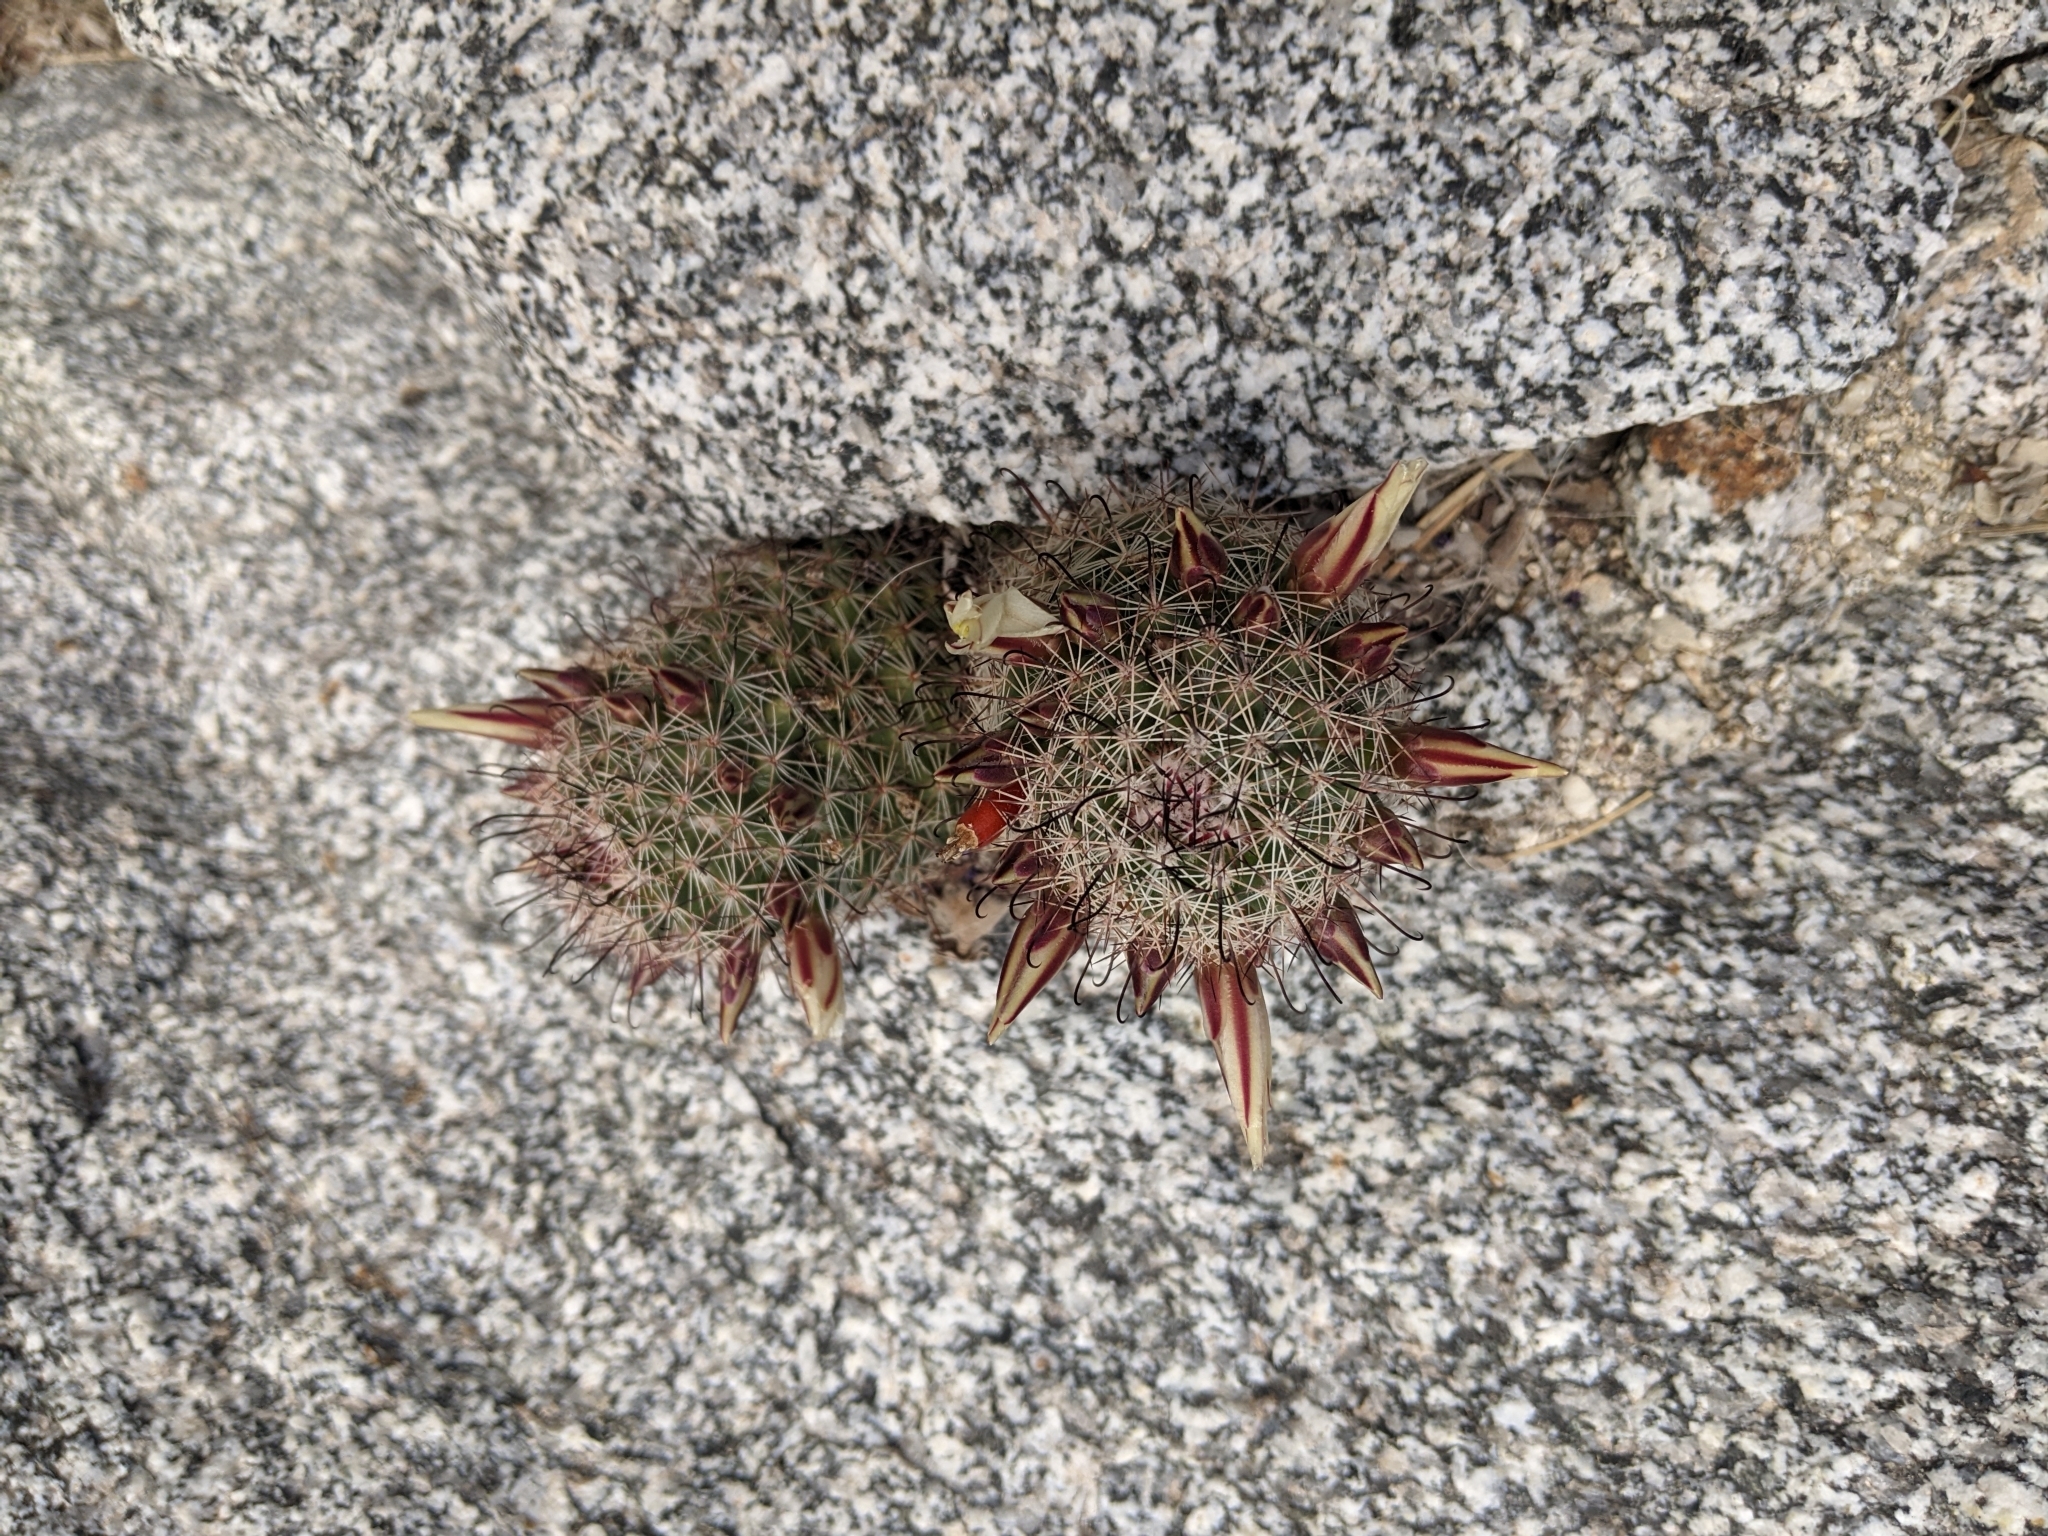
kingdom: Plantae
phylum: Tracheophyta
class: Magnoliopsida
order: Caryophyllales
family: Cactaceae
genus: Cochemiea
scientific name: Cochemiea dioica
